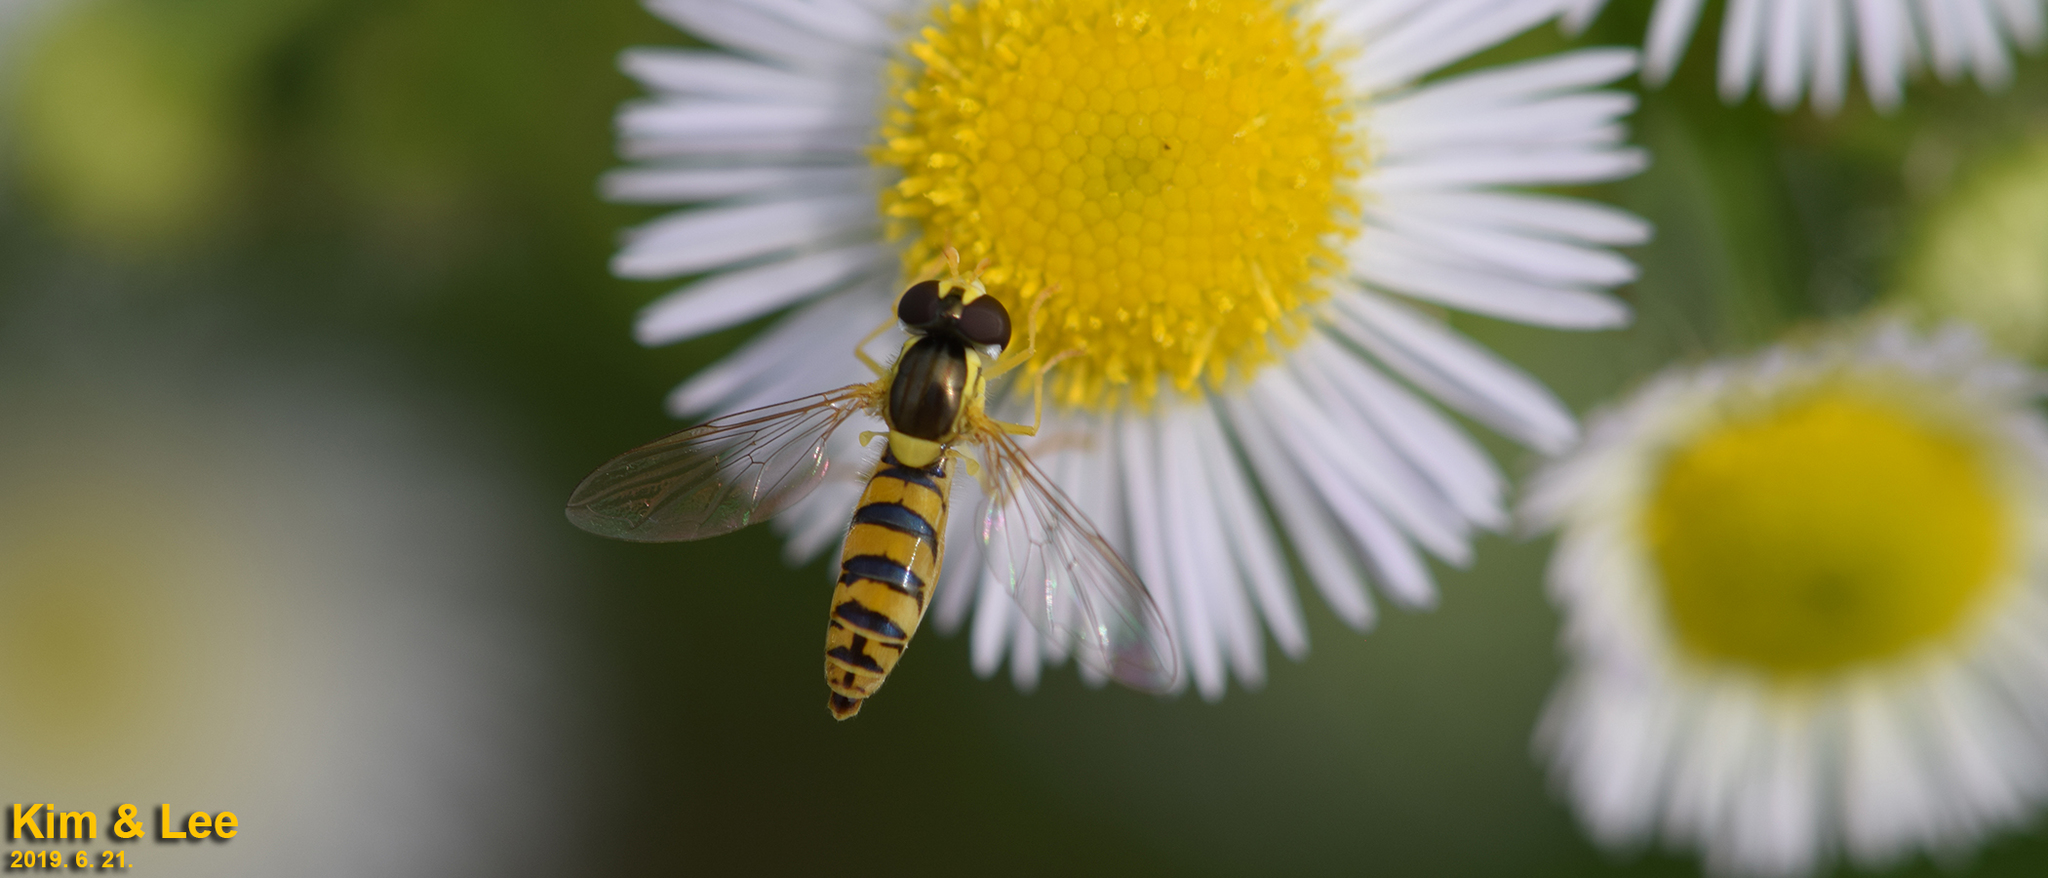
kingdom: Animalia
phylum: Arthropoda
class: Insecta
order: Diptera
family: Syrphidae
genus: Sphaerophoria
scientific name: Sphaerophoria scripta
